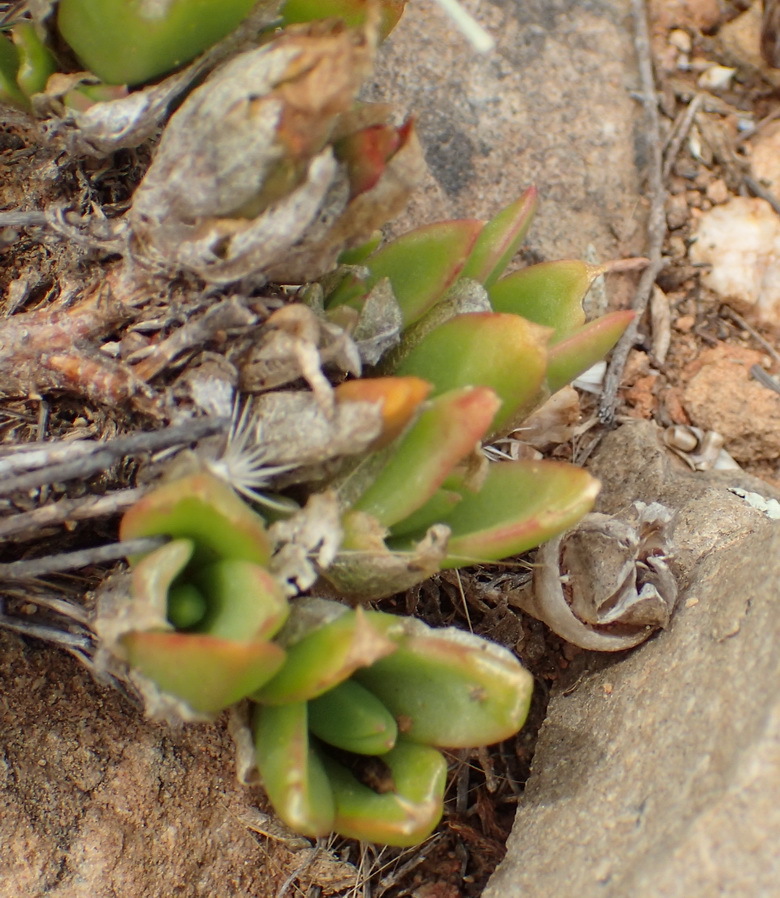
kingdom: Plantae
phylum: Tracheophyta
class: Magnoliopsida
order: Caryophyllales
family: Aizoaceae
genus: Mesembryanthemum
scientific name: Mesembryanthemum emarcidum
